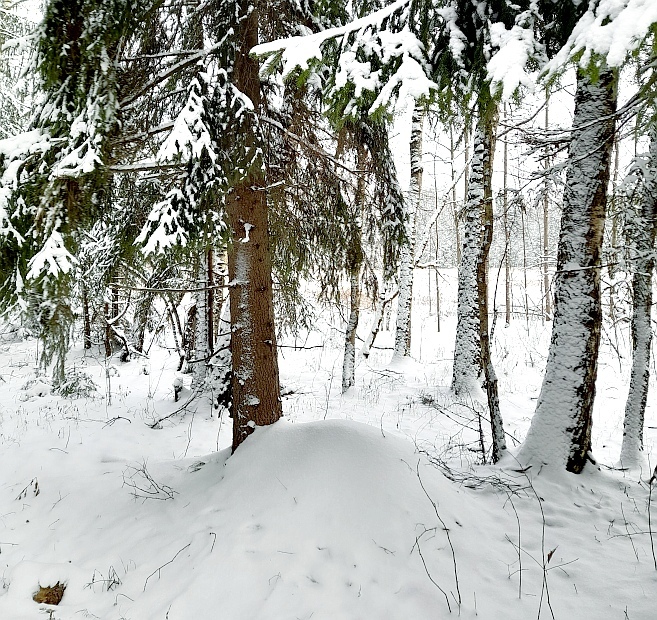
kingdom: Animalia
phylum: Arthropoda
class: Insecta
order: Hymenoptera
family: Formicidae
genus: Formica
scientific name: Formica
